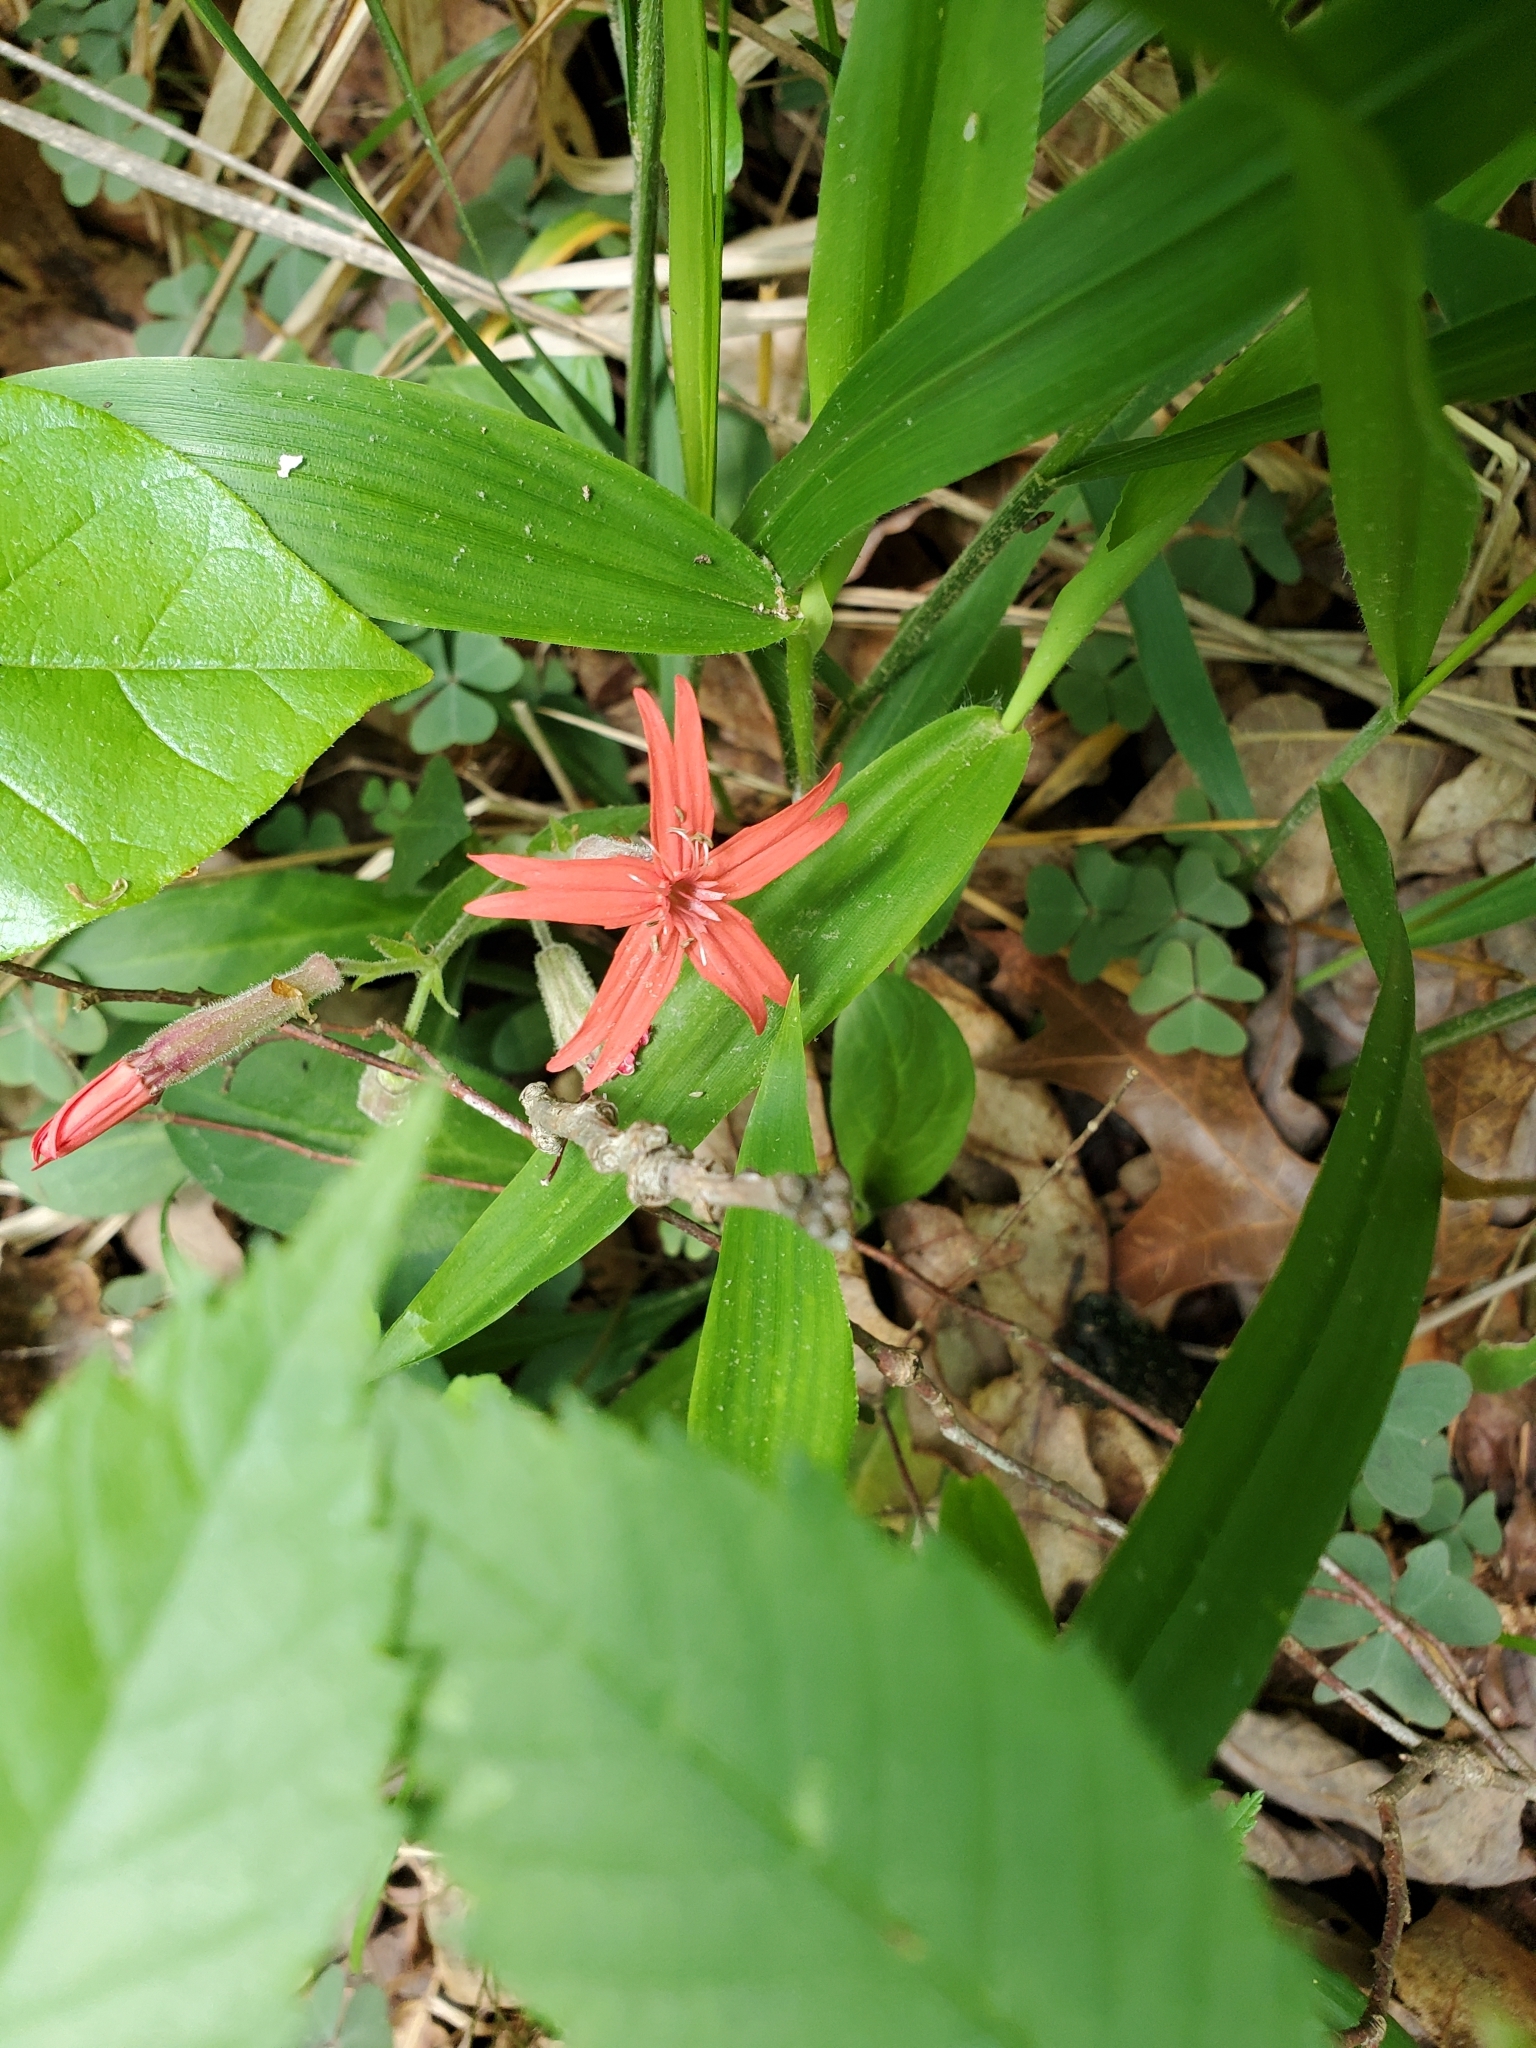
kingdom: Plantae
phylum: Tracheophyta
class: Magnoliopsida
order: Caryophyllales
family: Caryophyllaceae
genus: Silene
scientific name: Silene virginica
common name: Fire-pink
